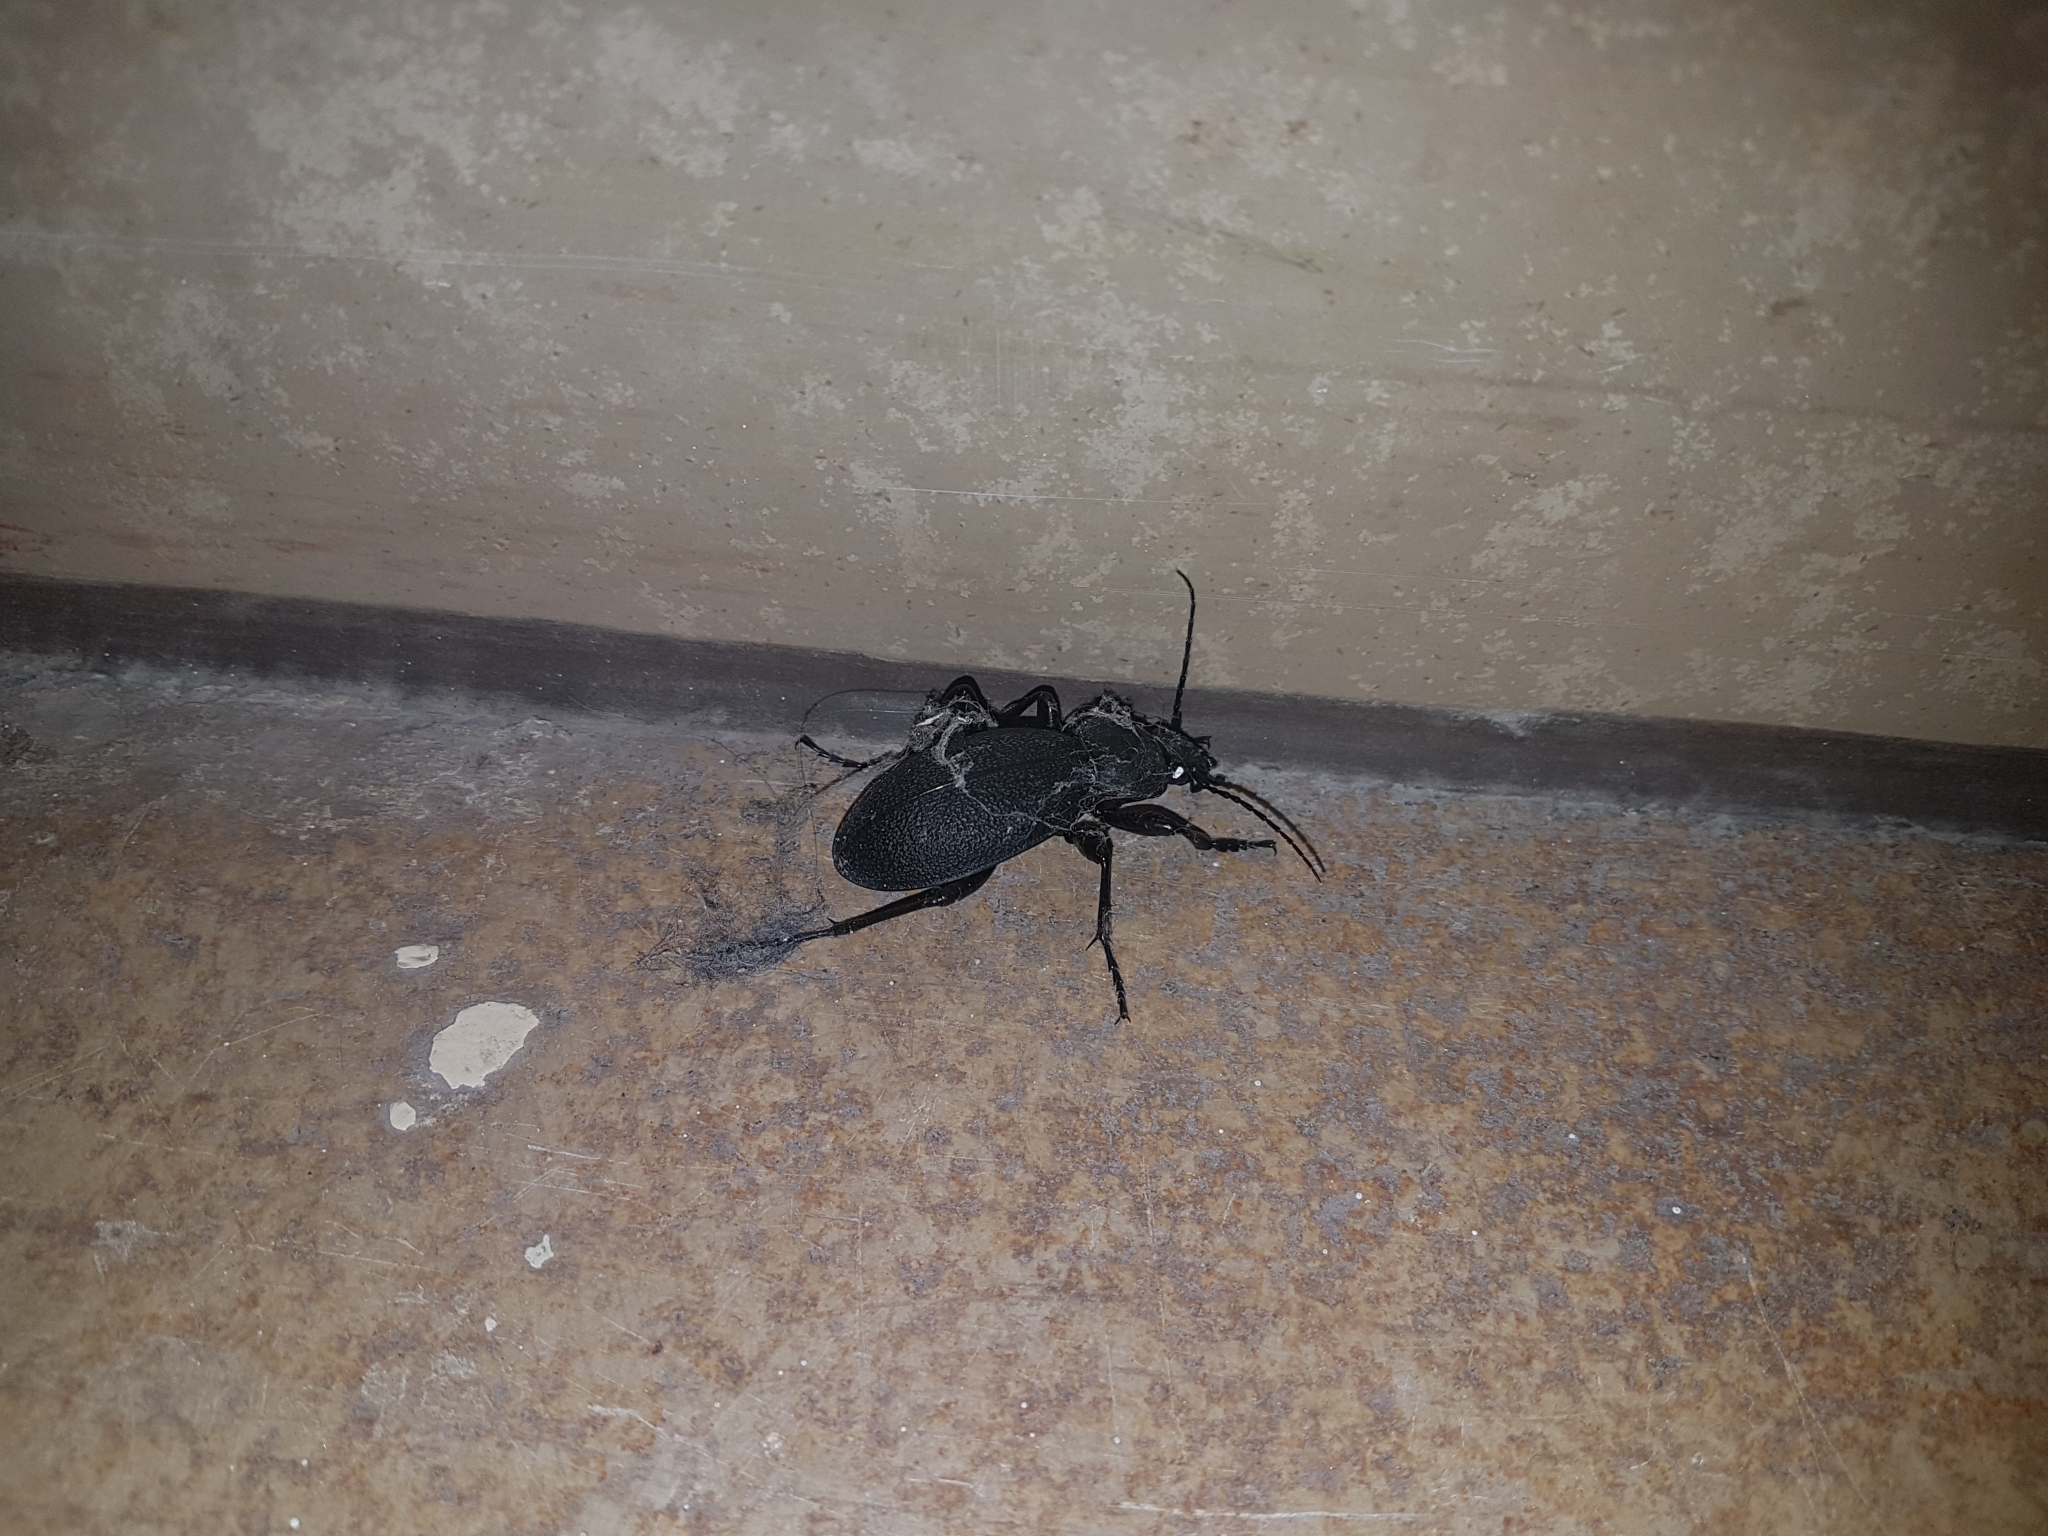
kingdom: Animalia
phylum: Arthropoda
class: Insecta
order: Coleoptera
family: Carabidae
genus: Carabus
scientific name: Carabus coriaceus
